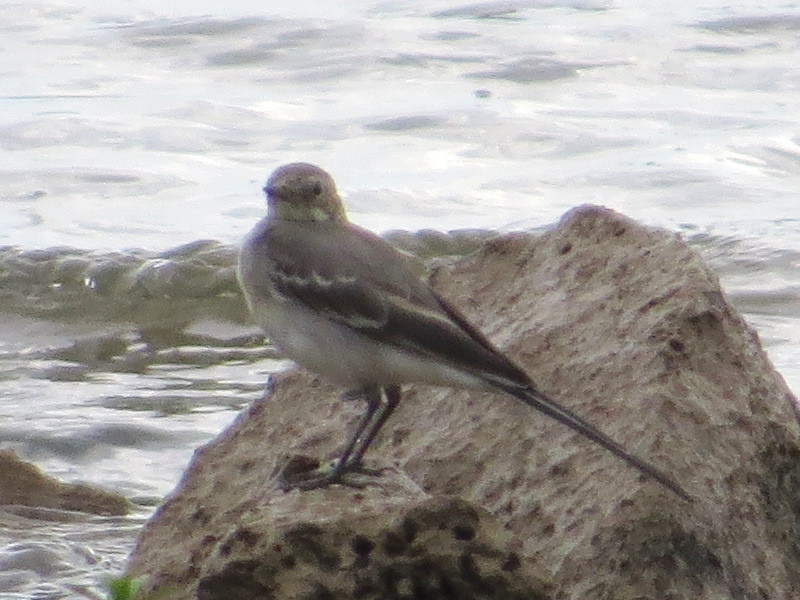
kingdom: Animalia
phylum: Chordata
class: Aves
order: Passeriformes
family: Motacillidae
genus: Motacilla
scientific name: Motacilla alba
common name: White wagtail
